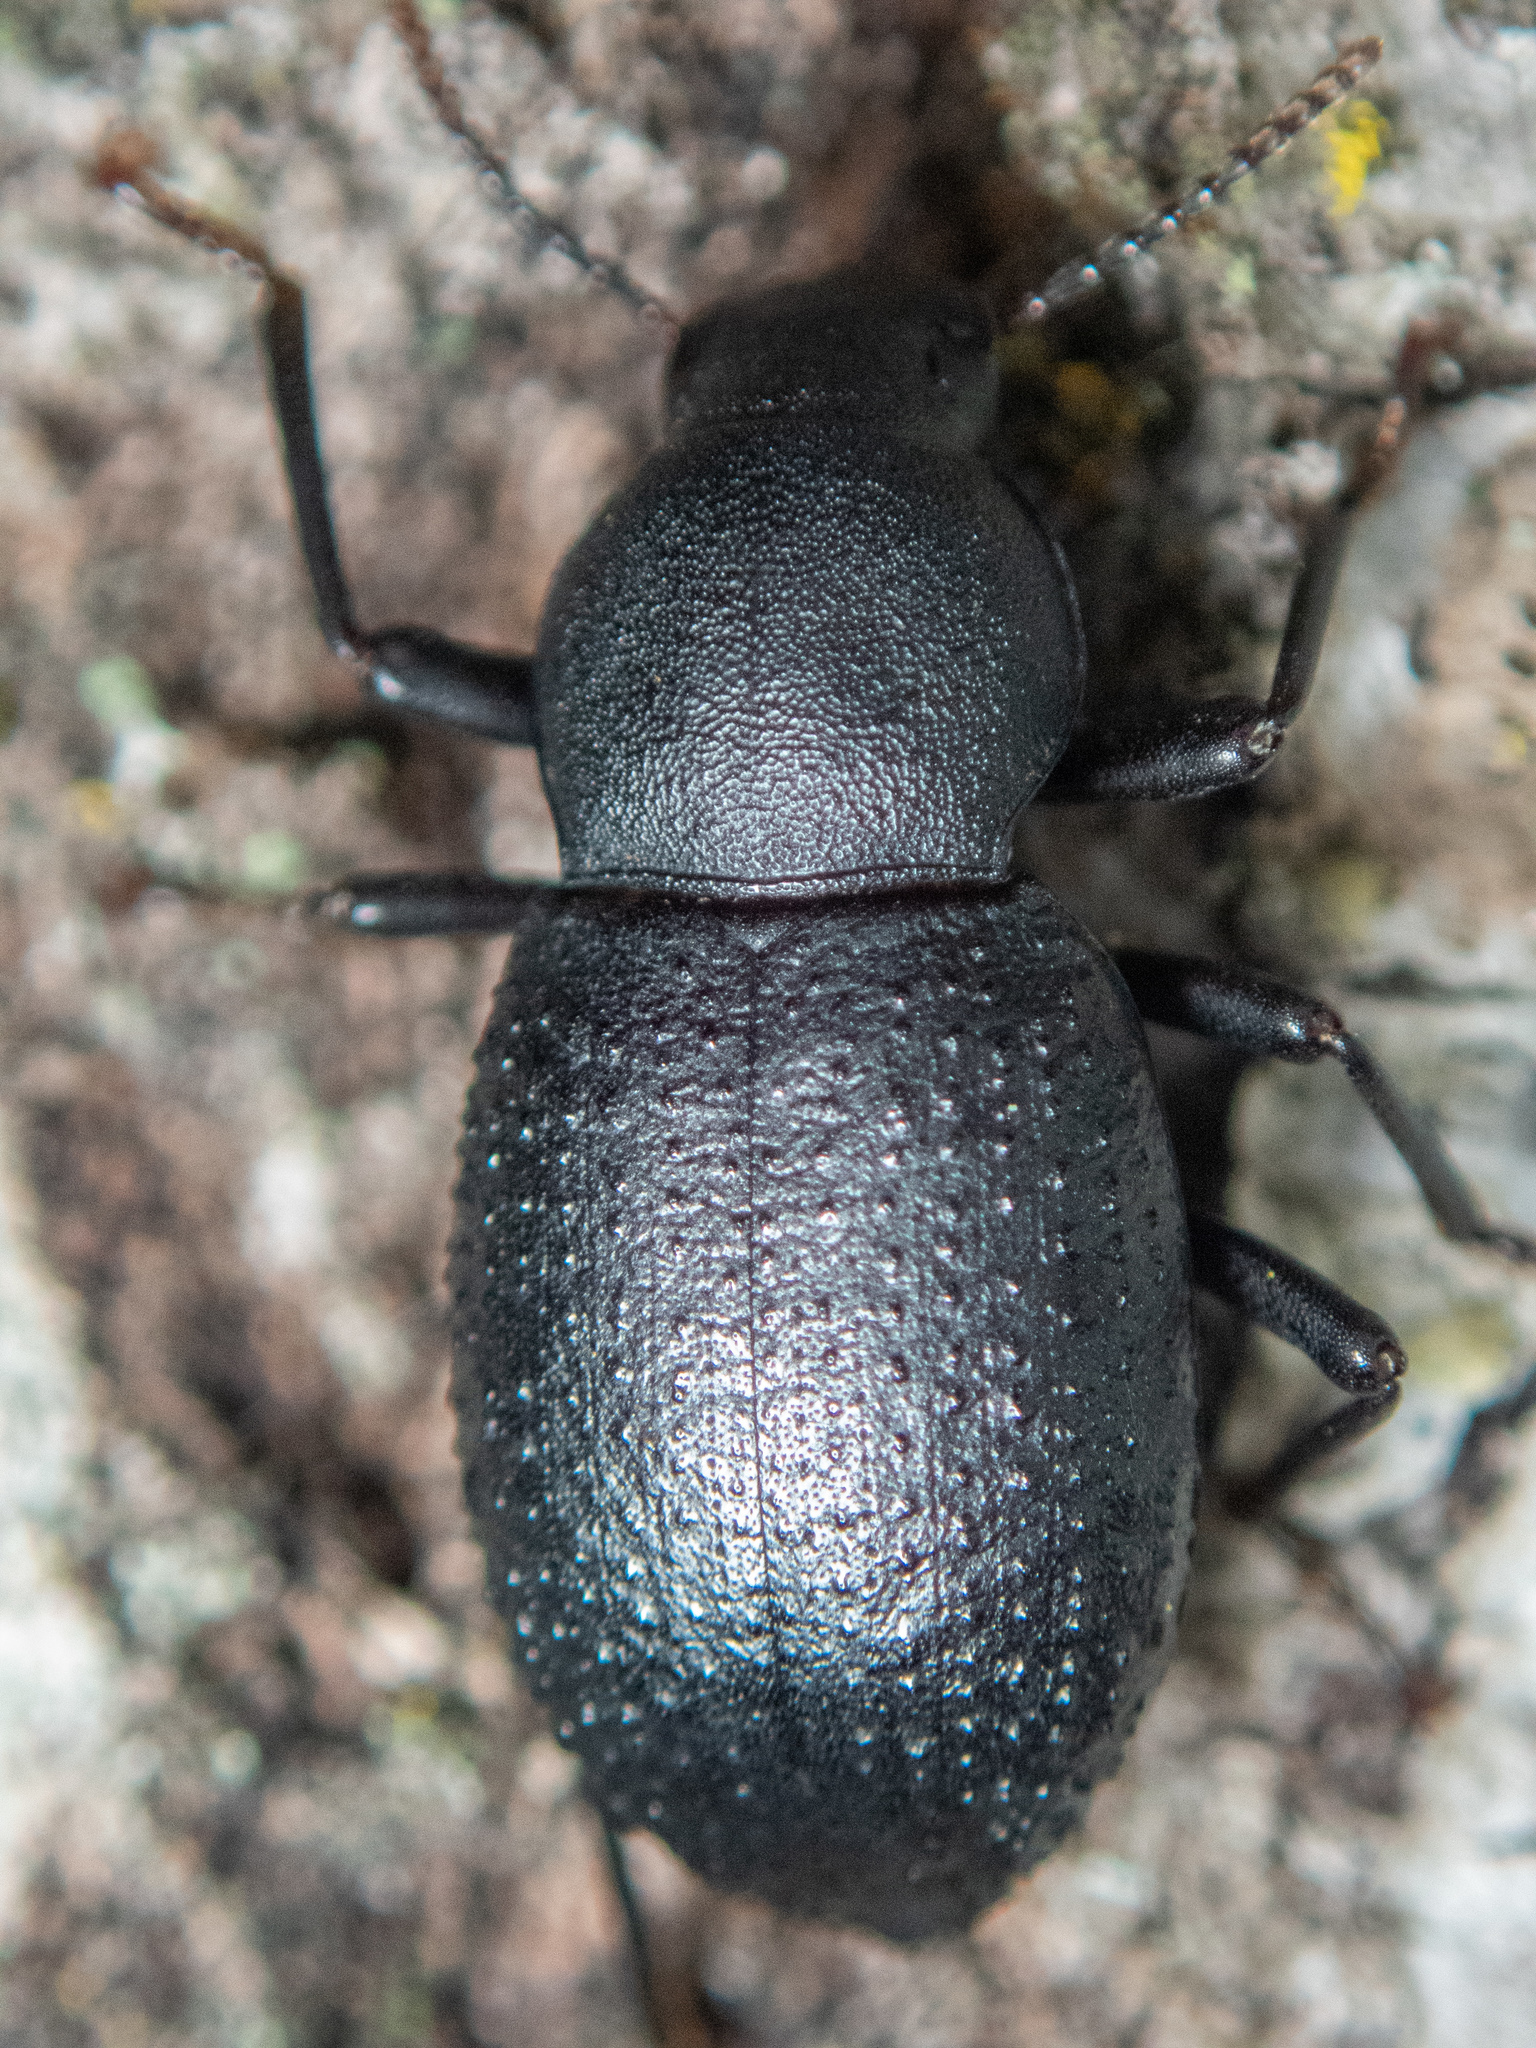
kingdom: Animalia
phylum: Arthropoda
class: Insecta
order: Coleoptera
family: Tenebrionidae
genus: Cibdelis
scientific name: Cibdelis blaschkii
